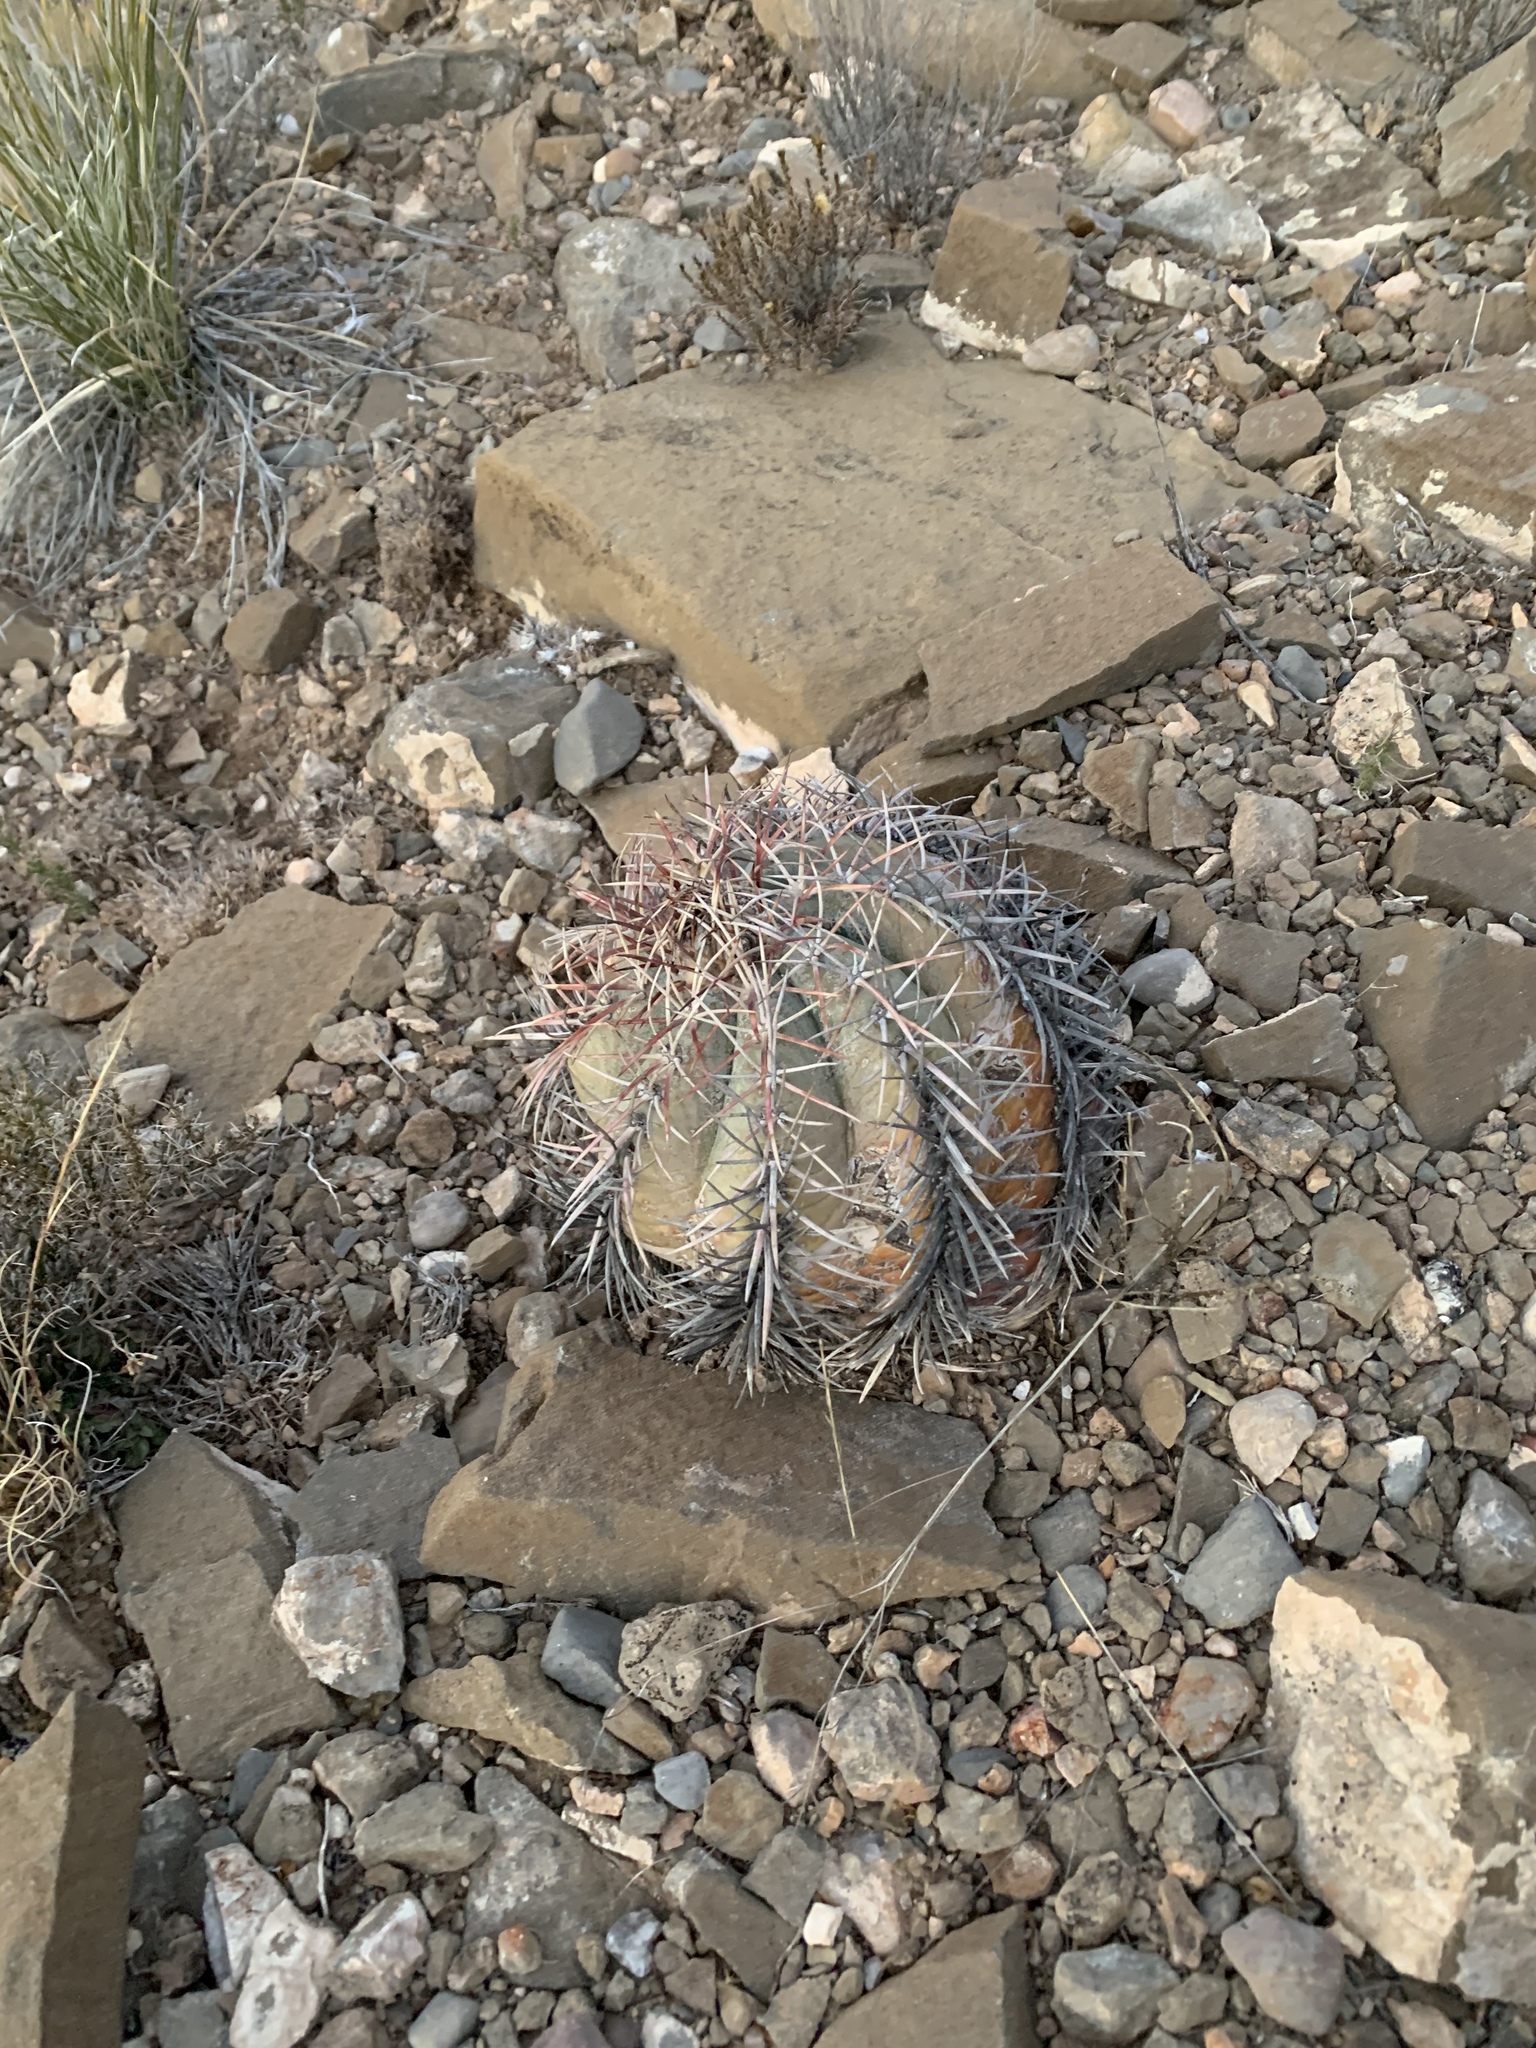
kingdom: Plantae
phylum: Tracheophyta
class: Magnoliopsida
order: Caryophyllales
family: Cactaceae
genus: Echinocactus
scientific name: Echinocactus horizonthalonius
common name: Devilshead
